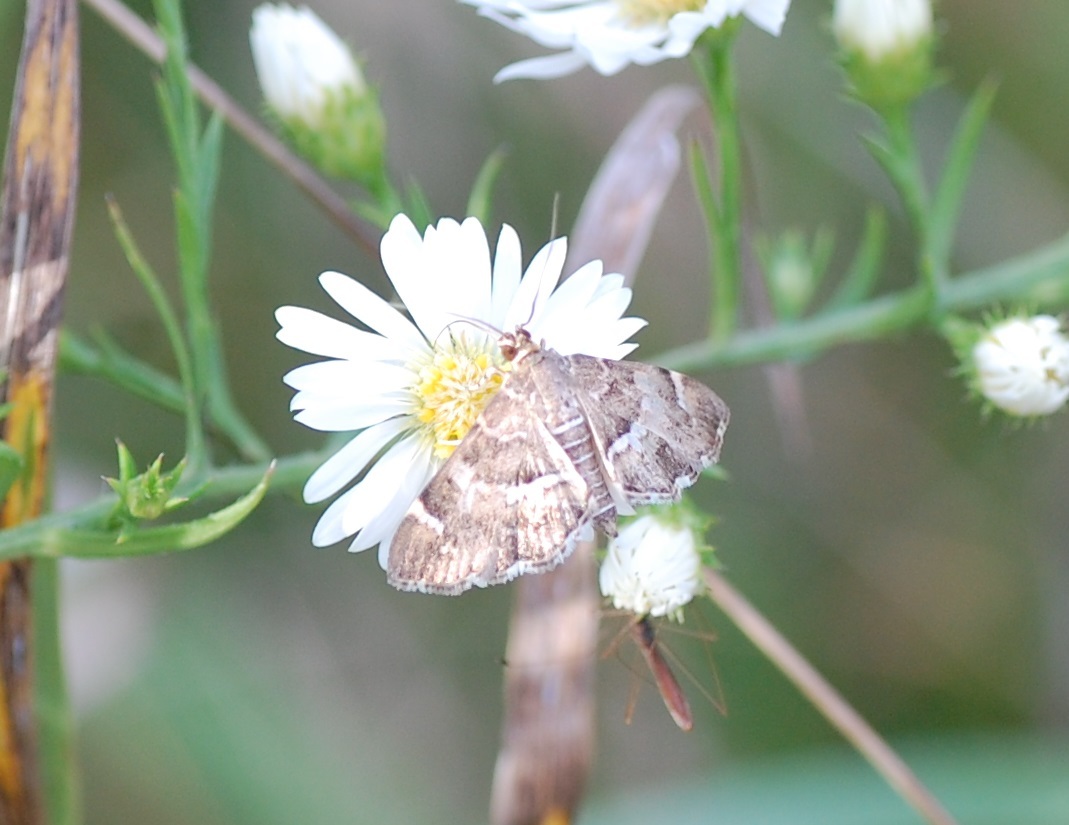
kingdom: Animalia
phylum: Arthropoda
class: Insecta
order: Lepidoptera
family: Crambidae
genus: Hymenia
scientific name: Hymenia perspectalis
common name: Spotted beet webworm
